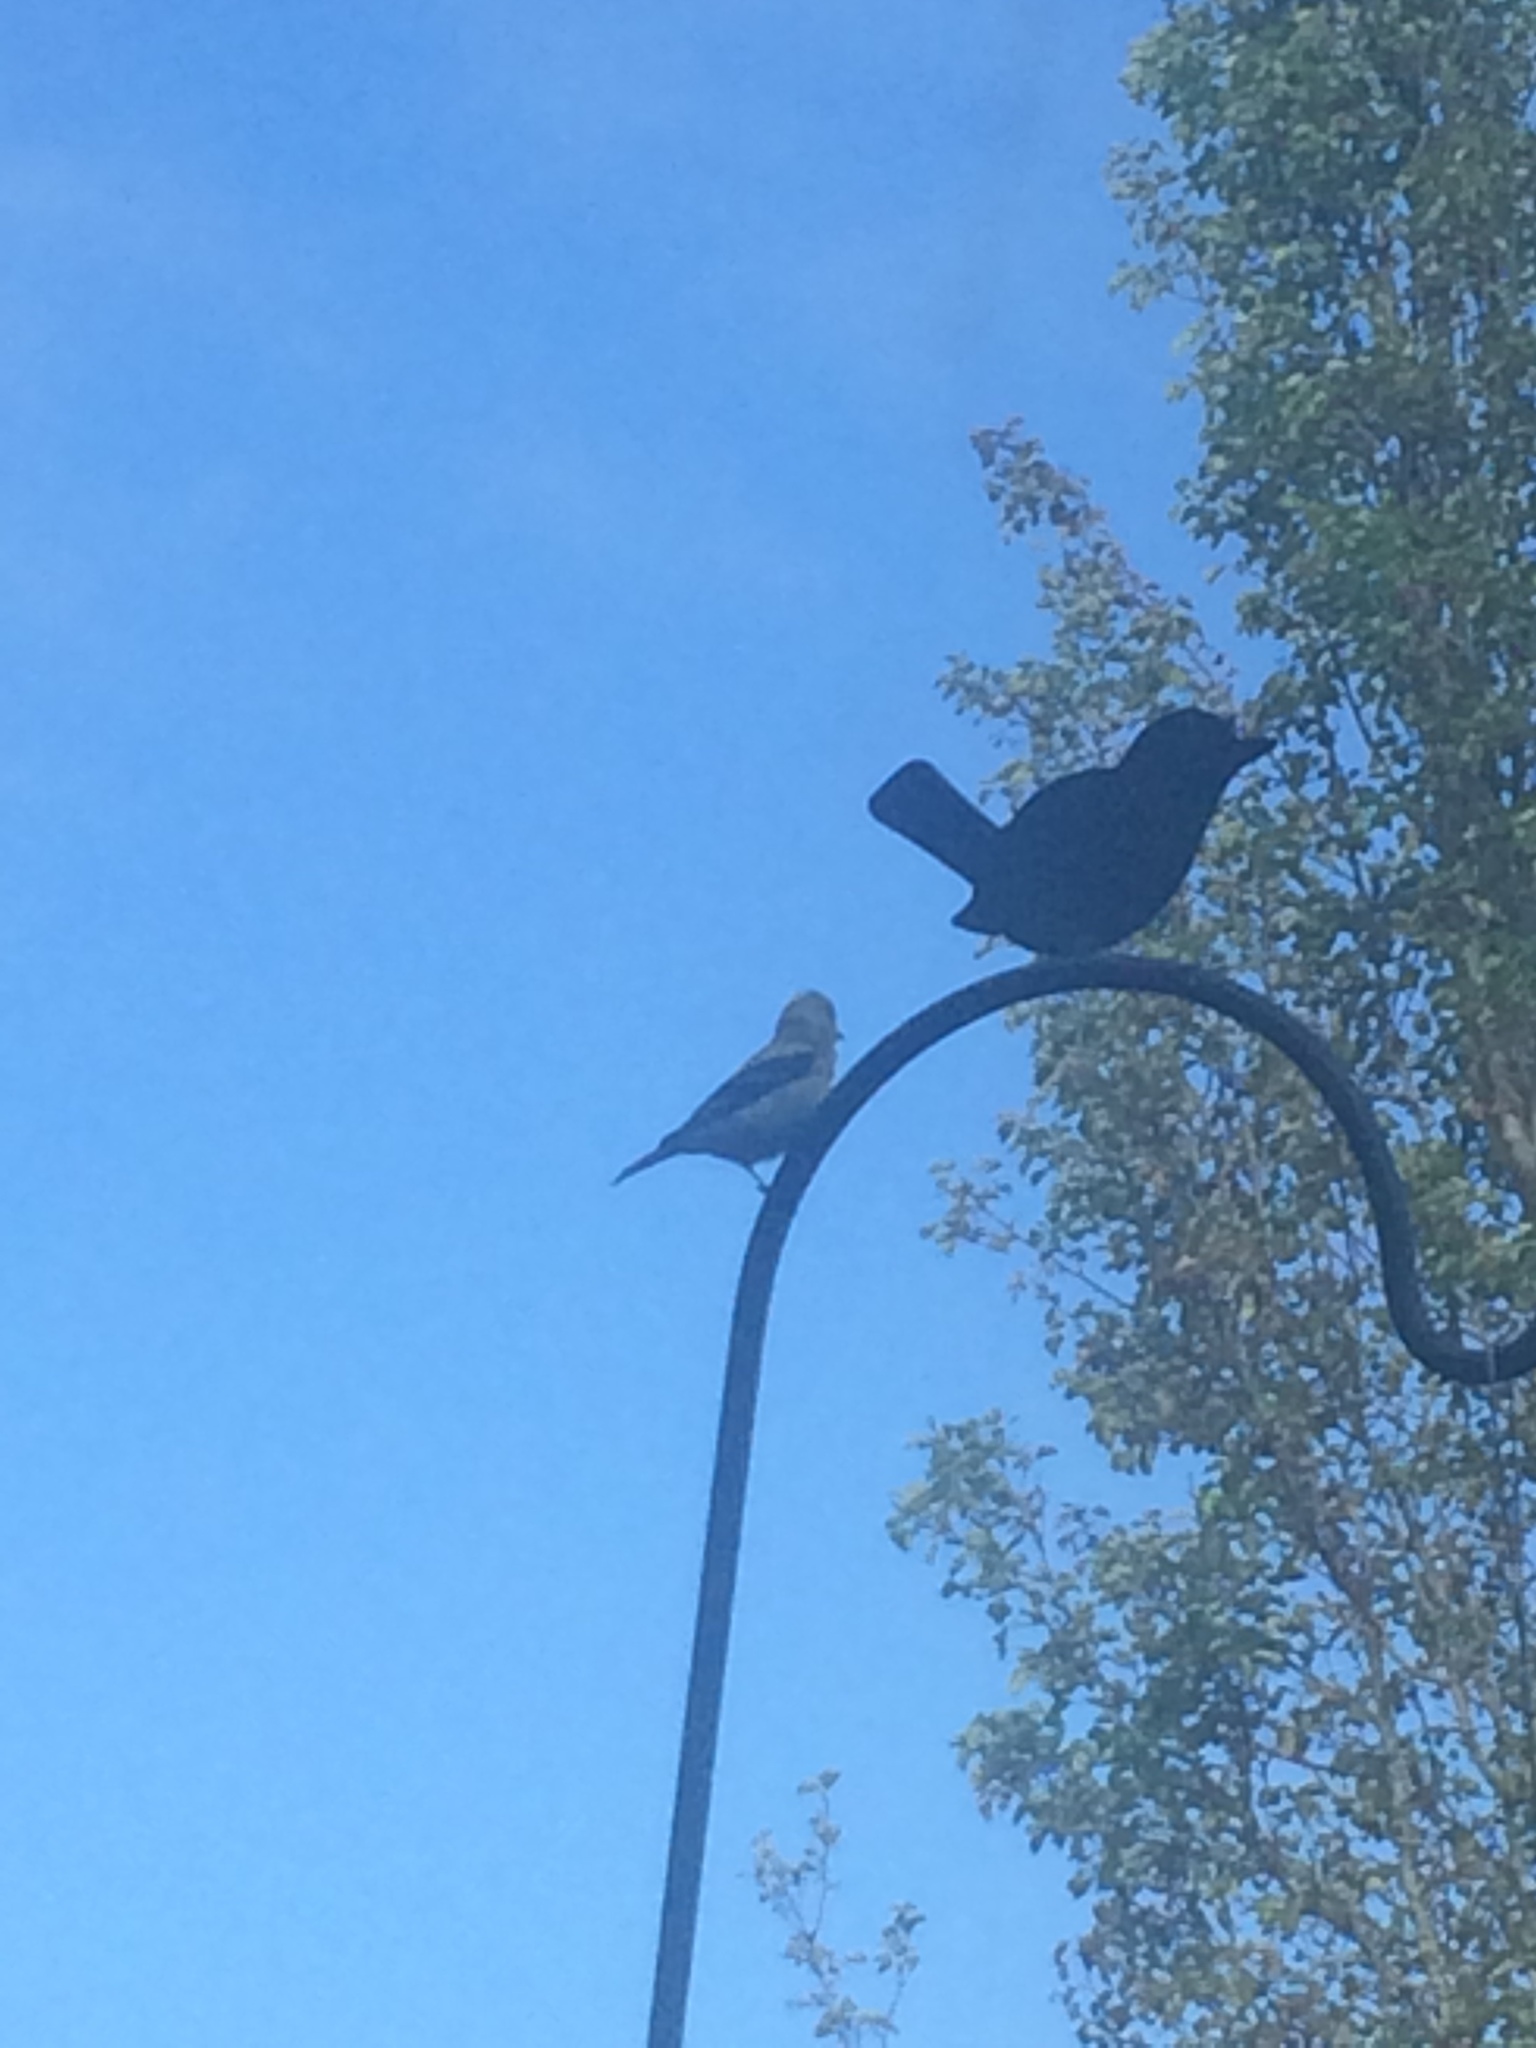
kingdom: Animalia
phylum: Chordata
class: Aves
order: Passeriformes
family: Fringillidae
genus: Spinus
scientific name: Spinus tristis
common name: American goldfinch
